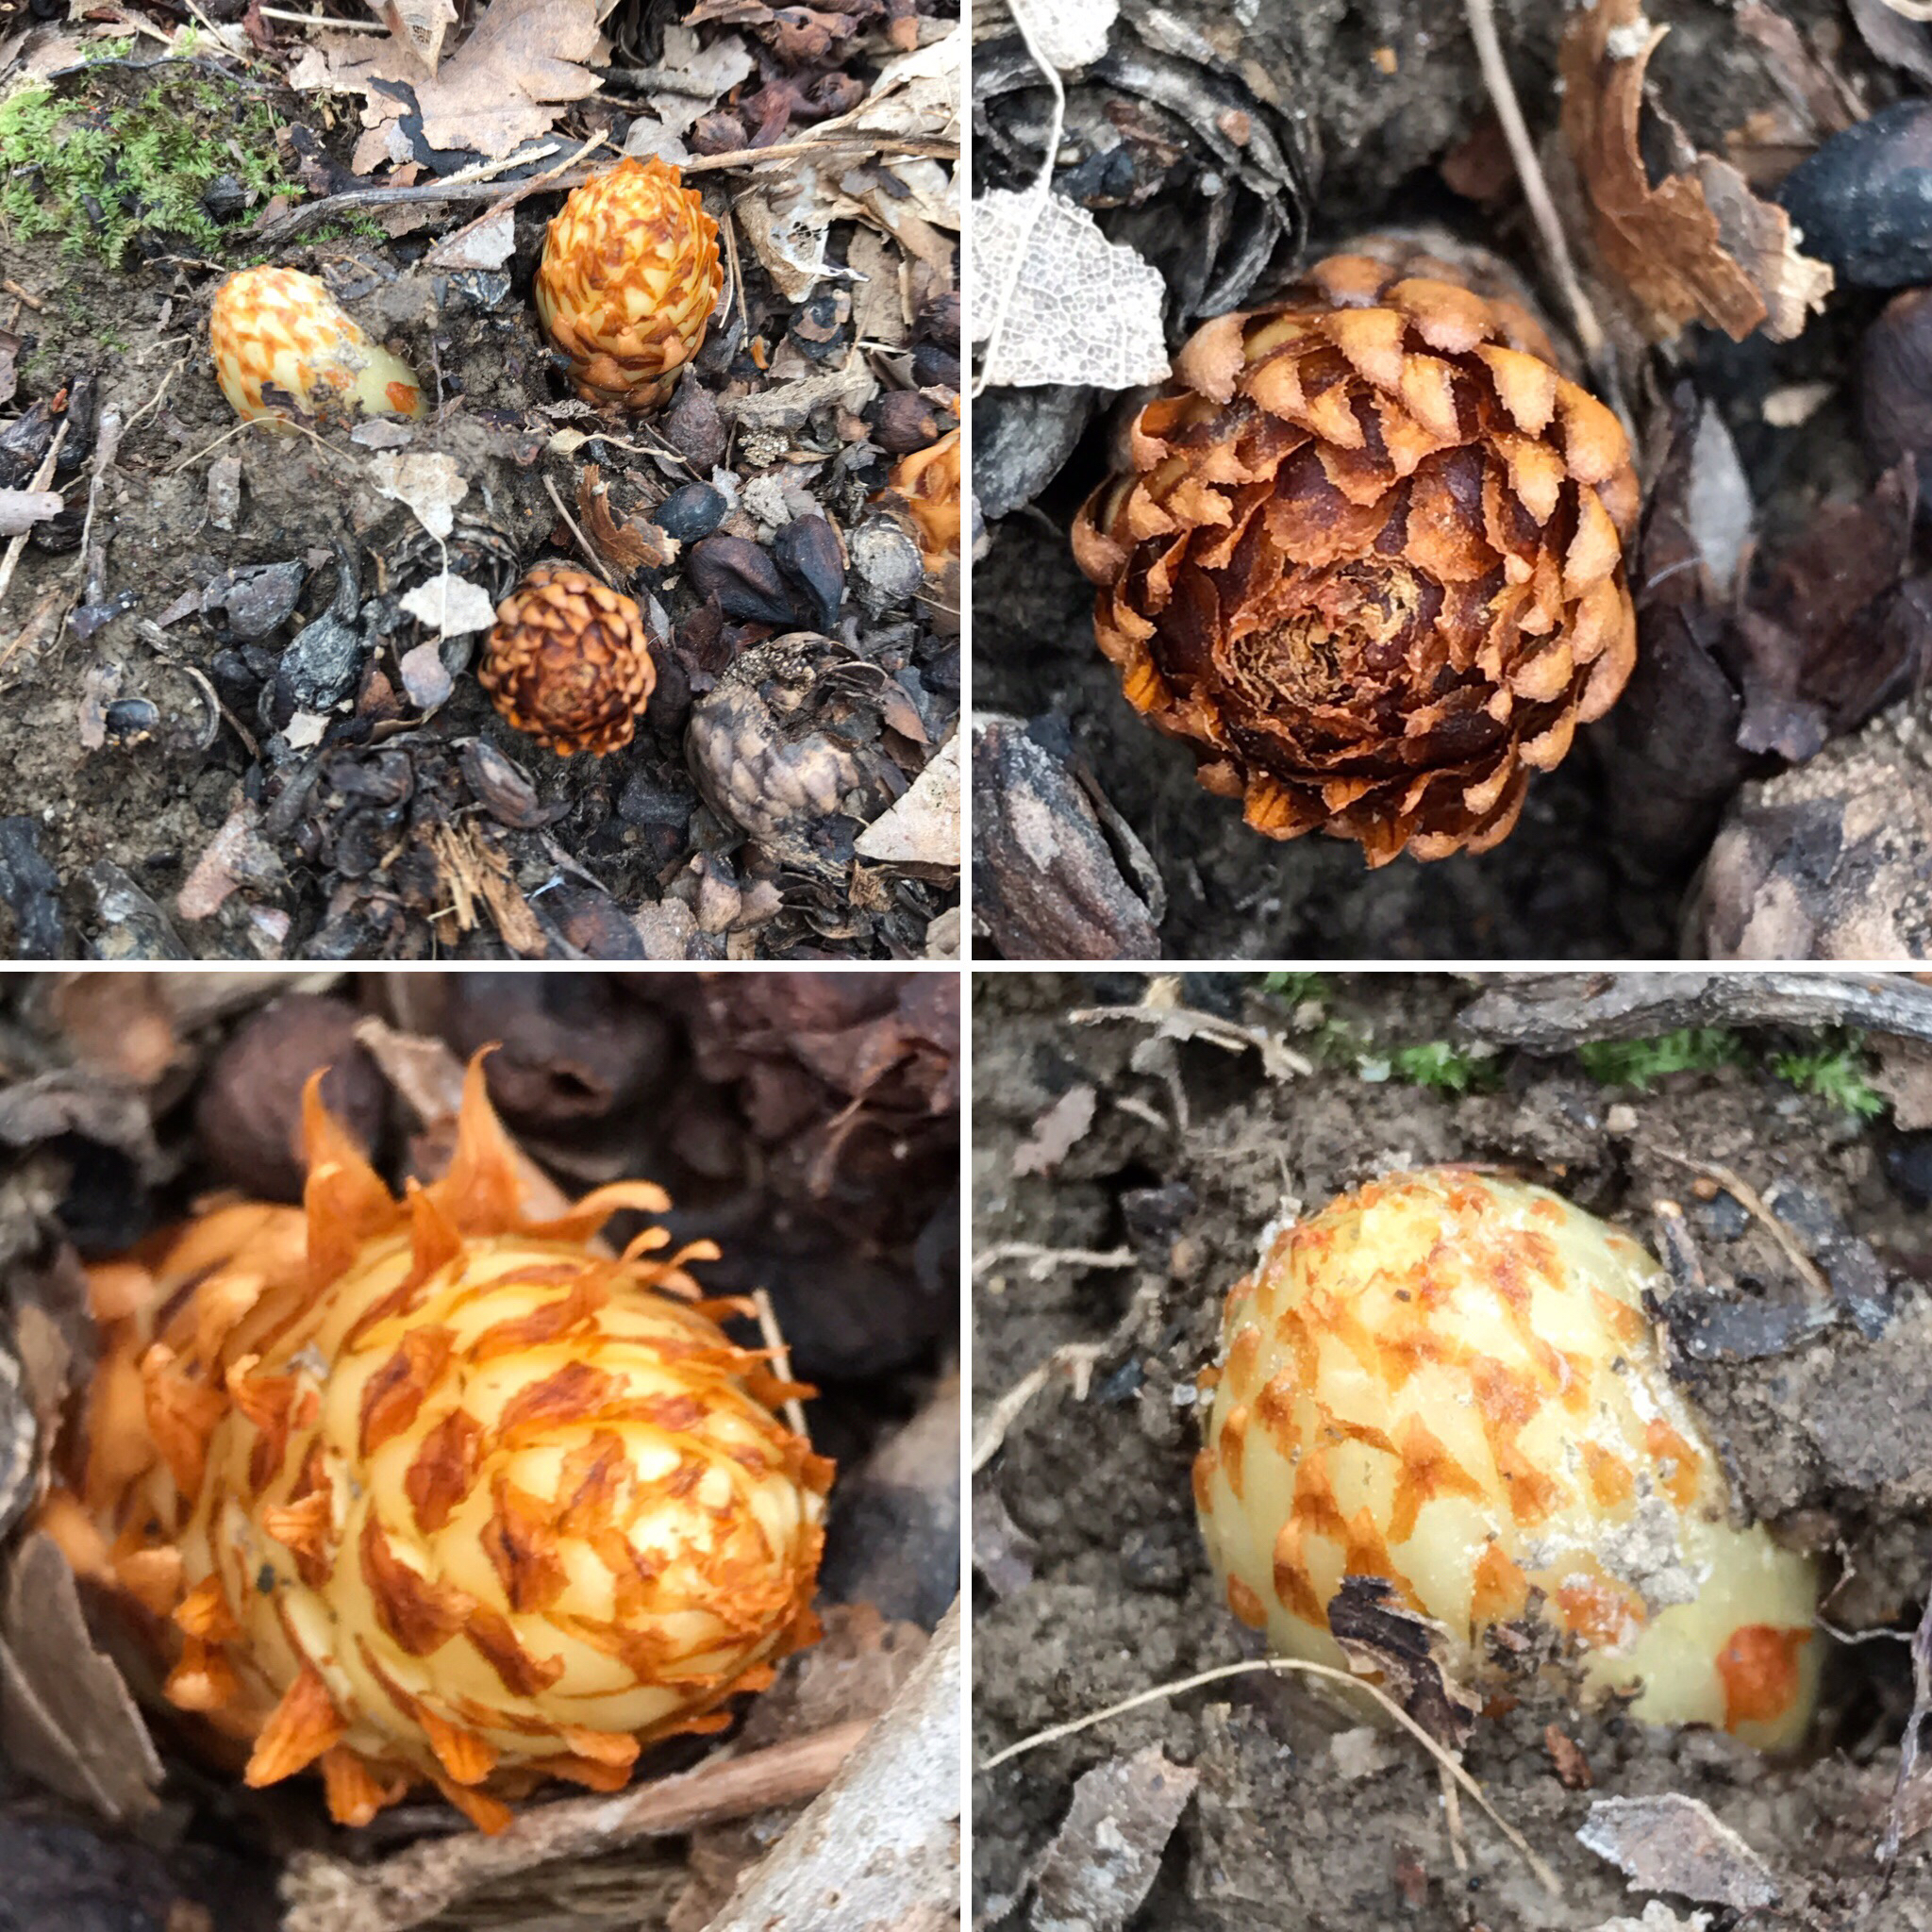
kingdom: Plantae
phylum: Tracheophyta
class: Magnoliopsida
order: Lamiales
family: Orobanchaceae
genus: Conopholis
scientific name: Conopholis americana
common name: American cancer-root
